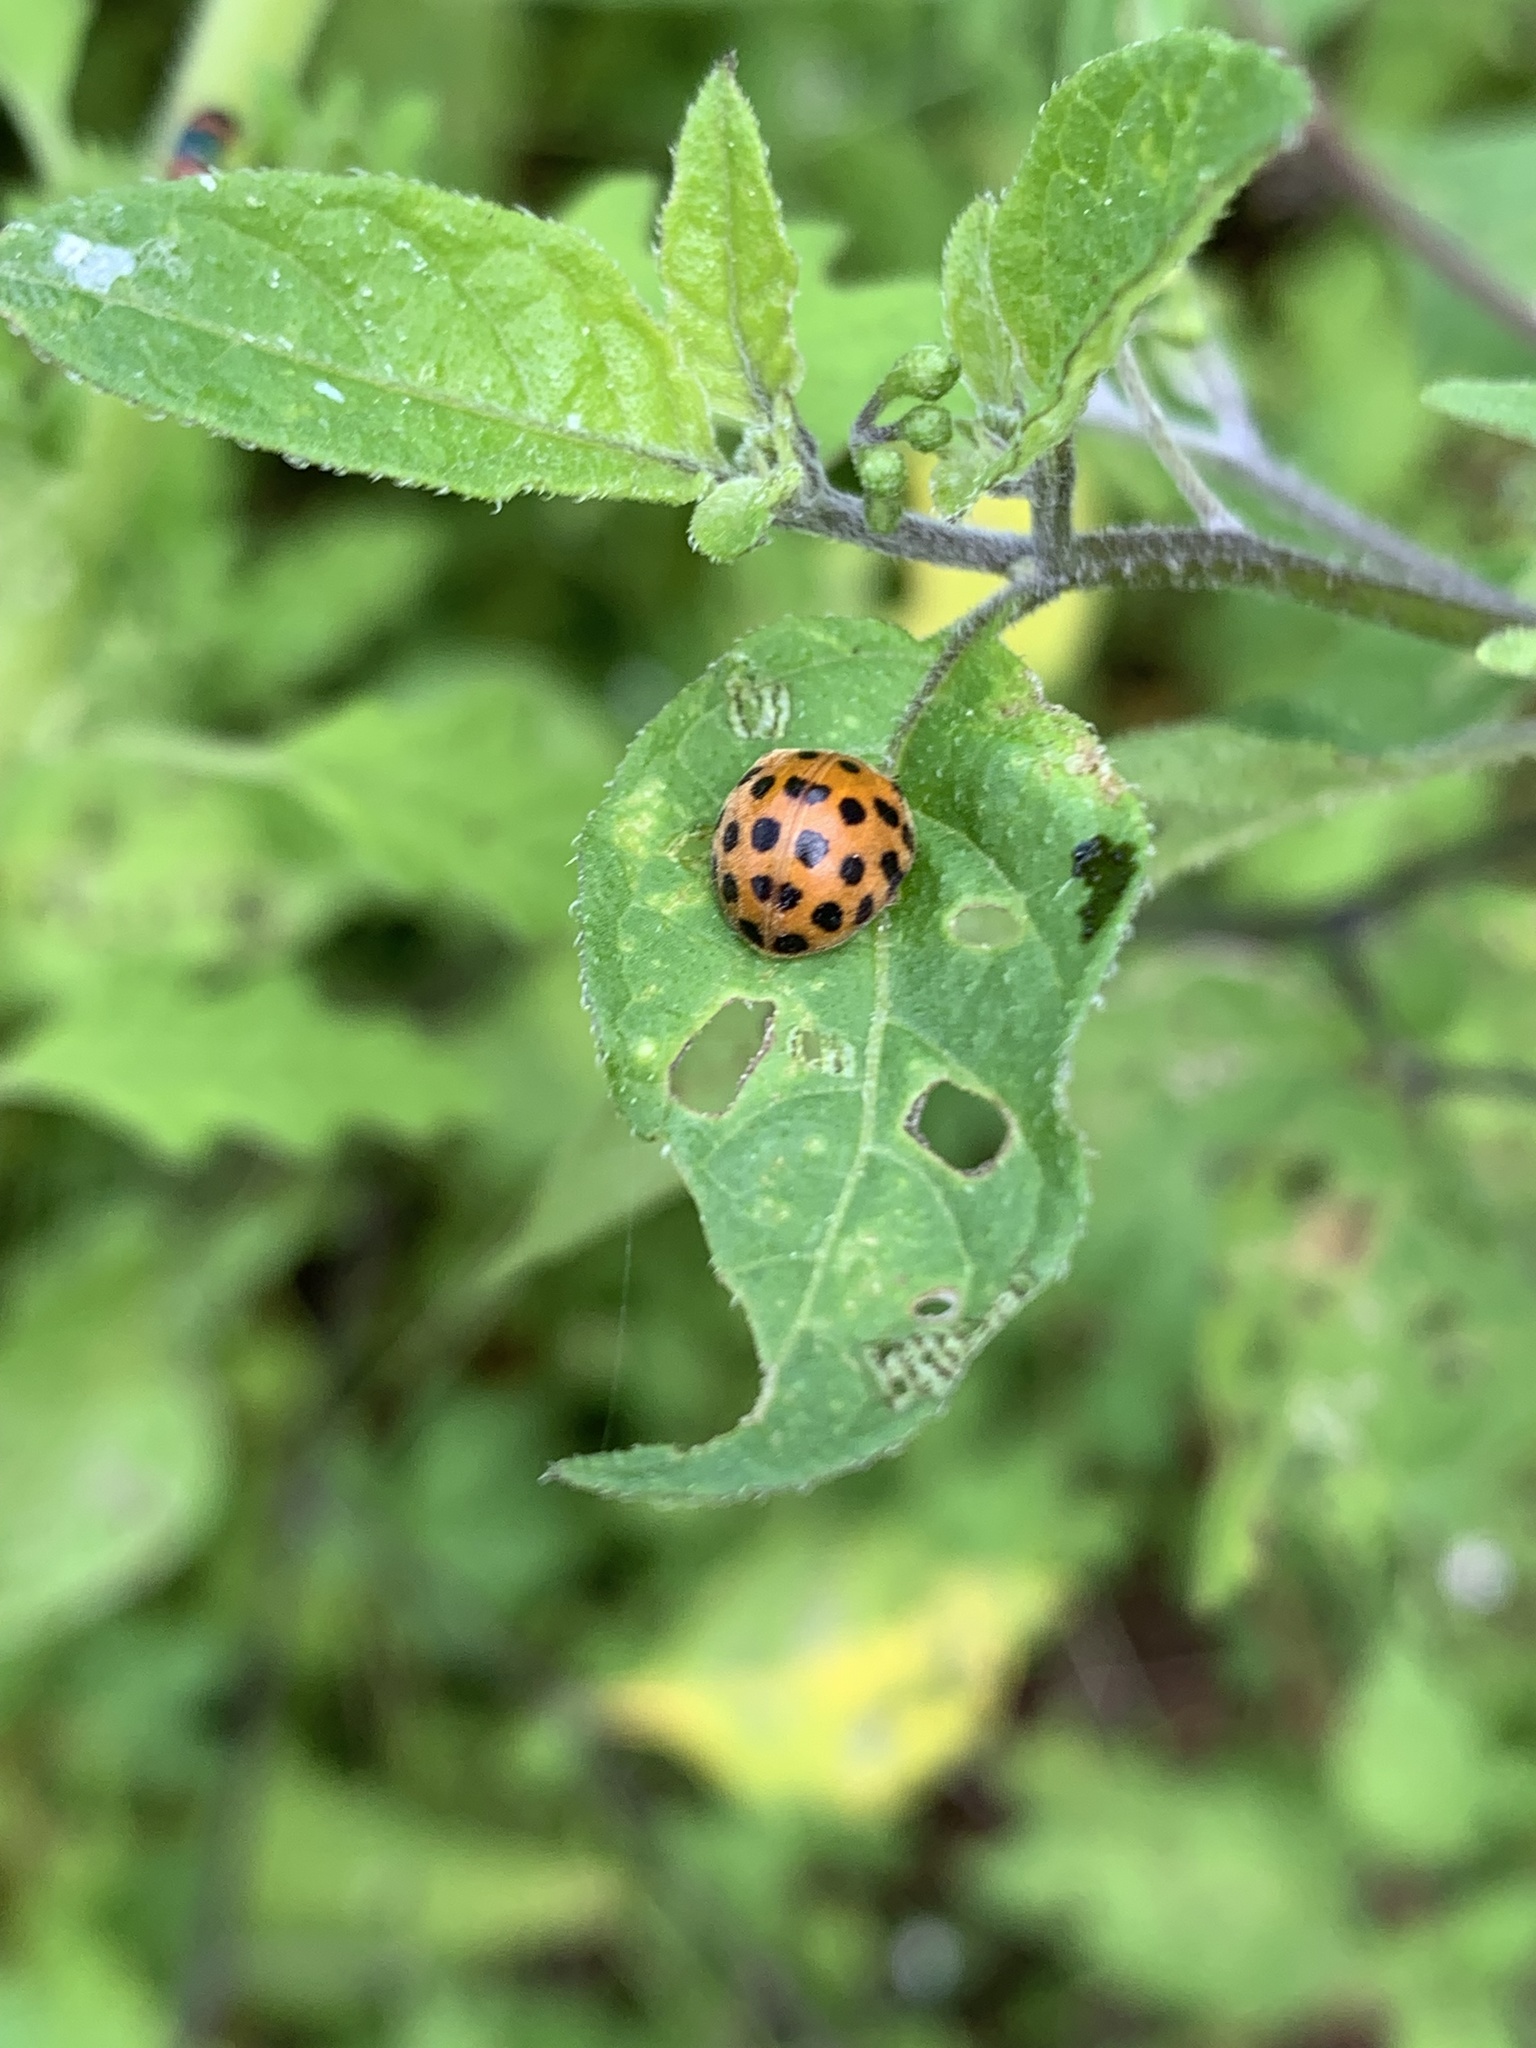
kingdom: Animalia
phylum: Arthropoda
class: Insecta
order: Coleoptera
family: Coccinellidae
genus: Henosepilachna
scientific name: Henosepilachna vigintioctopunctata
